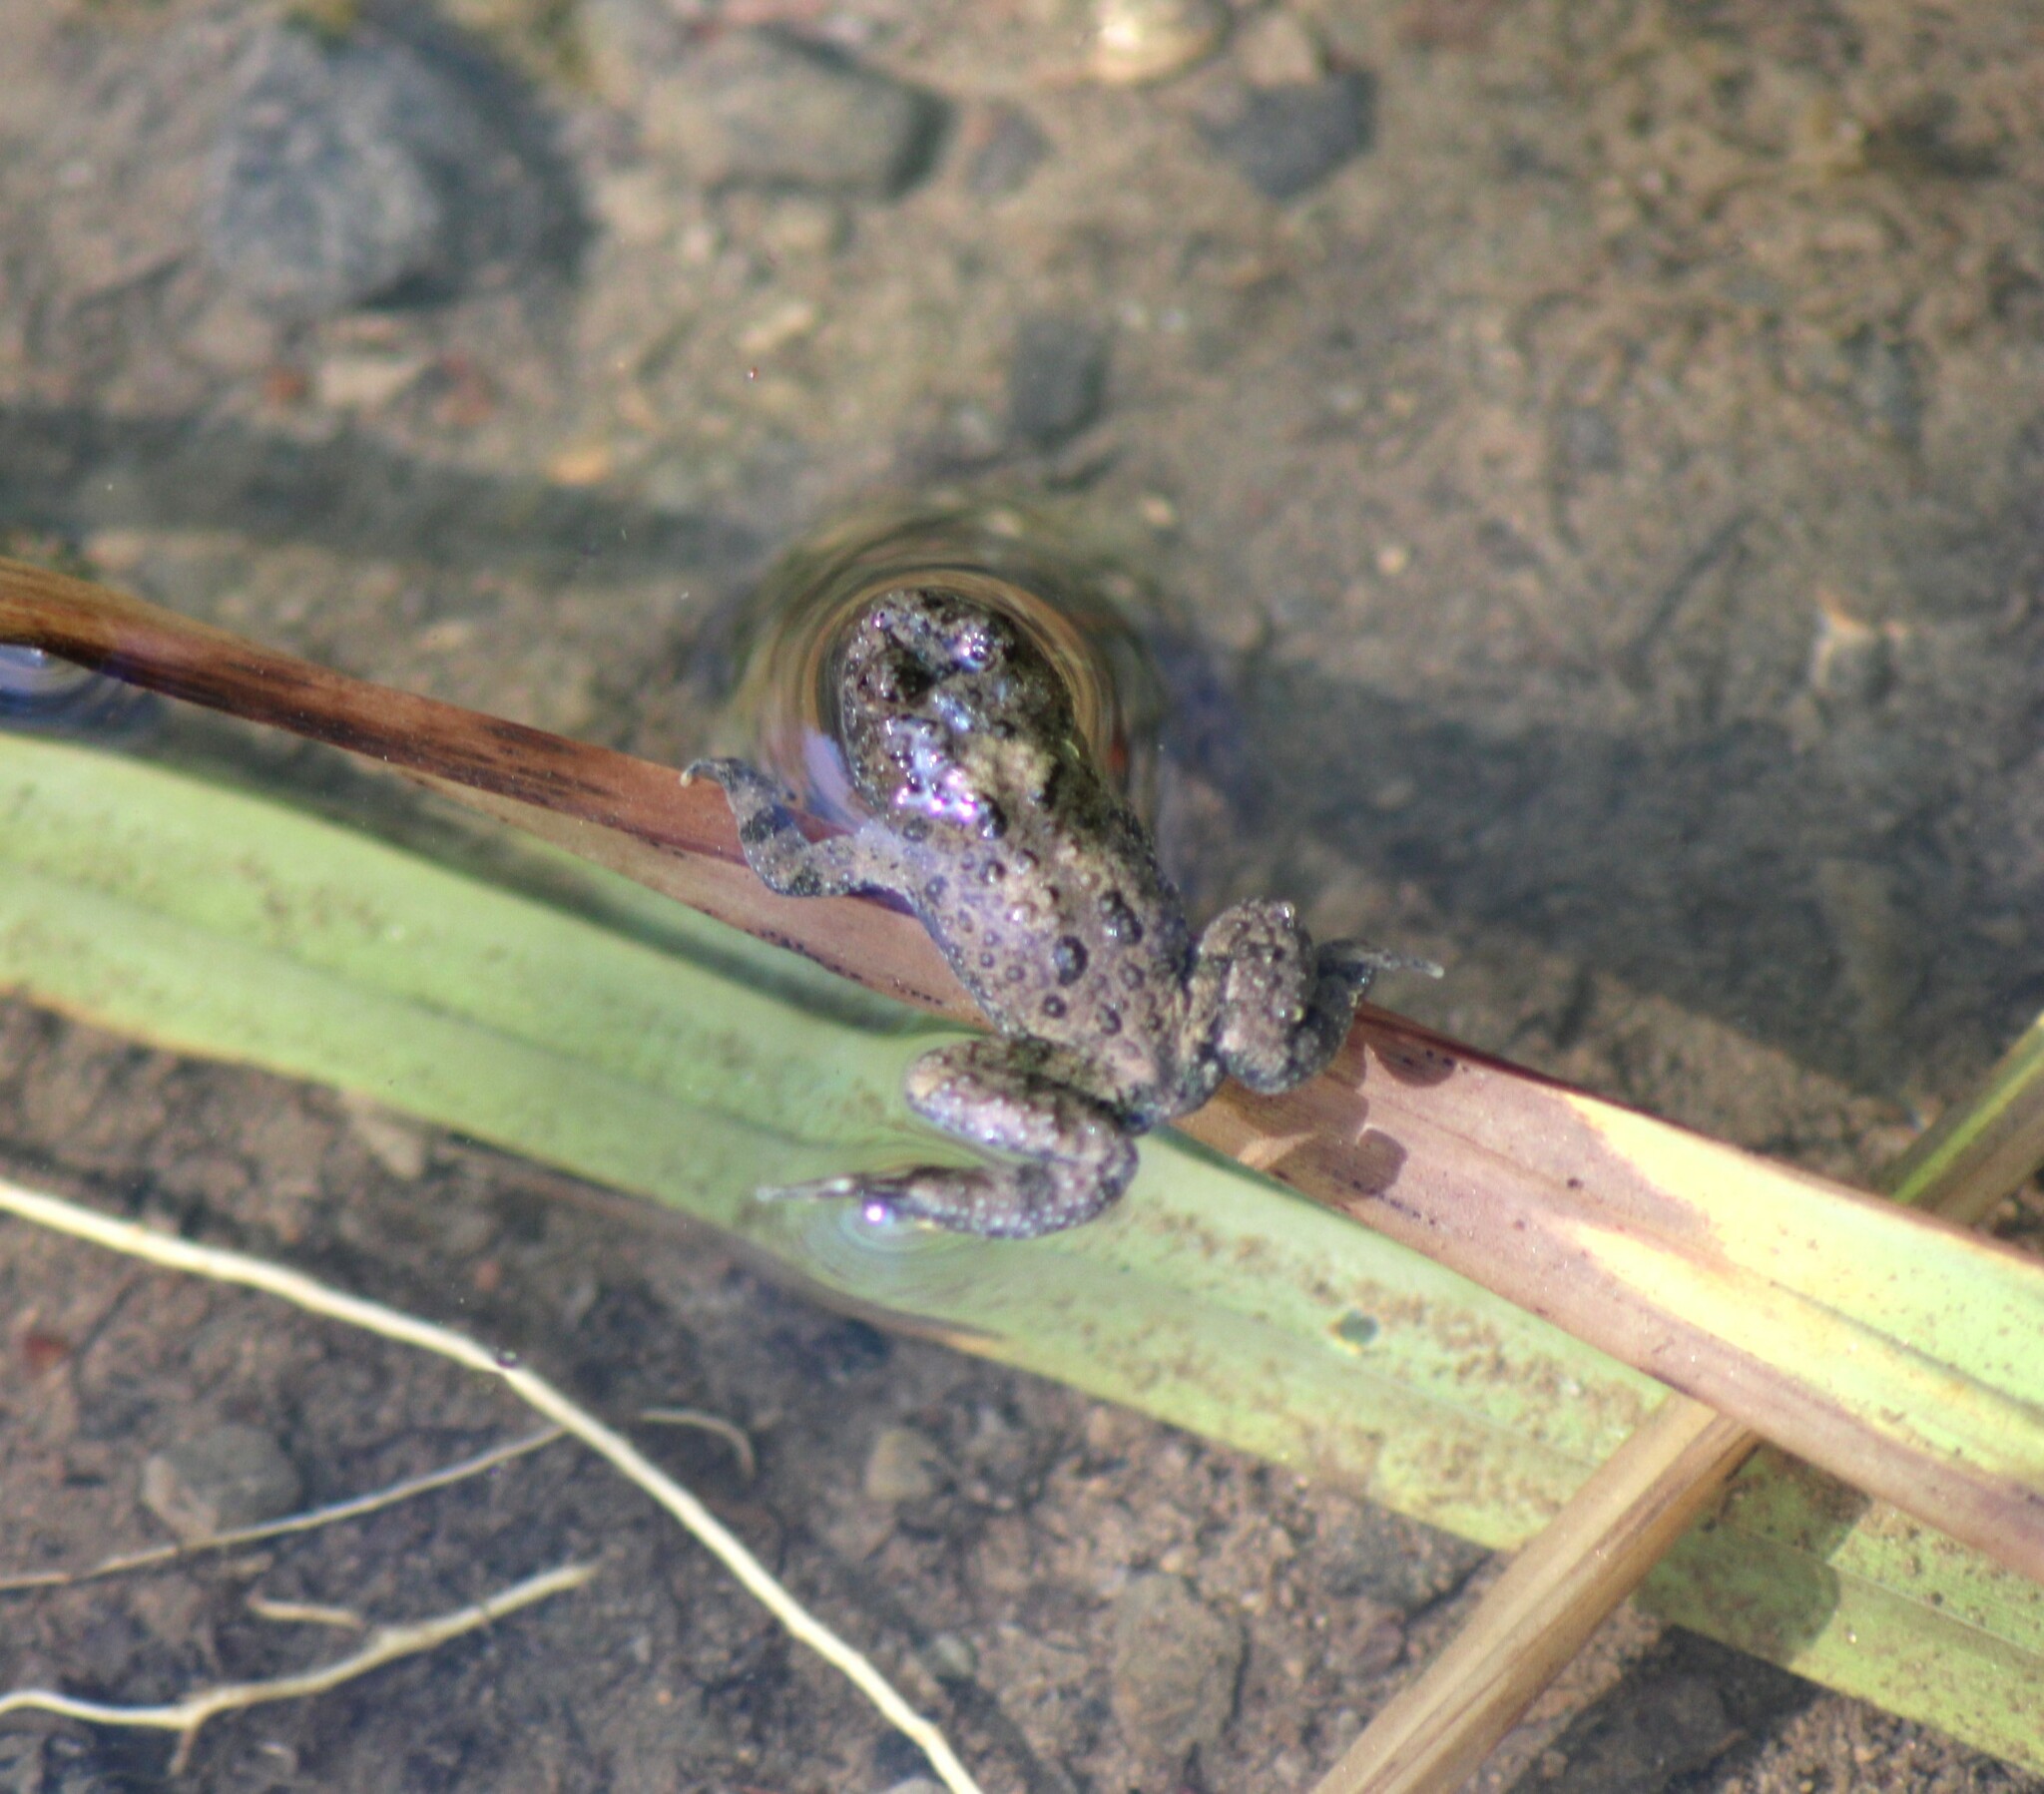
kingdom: Animalia
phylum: Chordata
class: Amphibia
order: Anura
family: Bombinatoridae
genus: Bombina
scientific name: Bombina variegata
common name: Yellow-bellied toad
